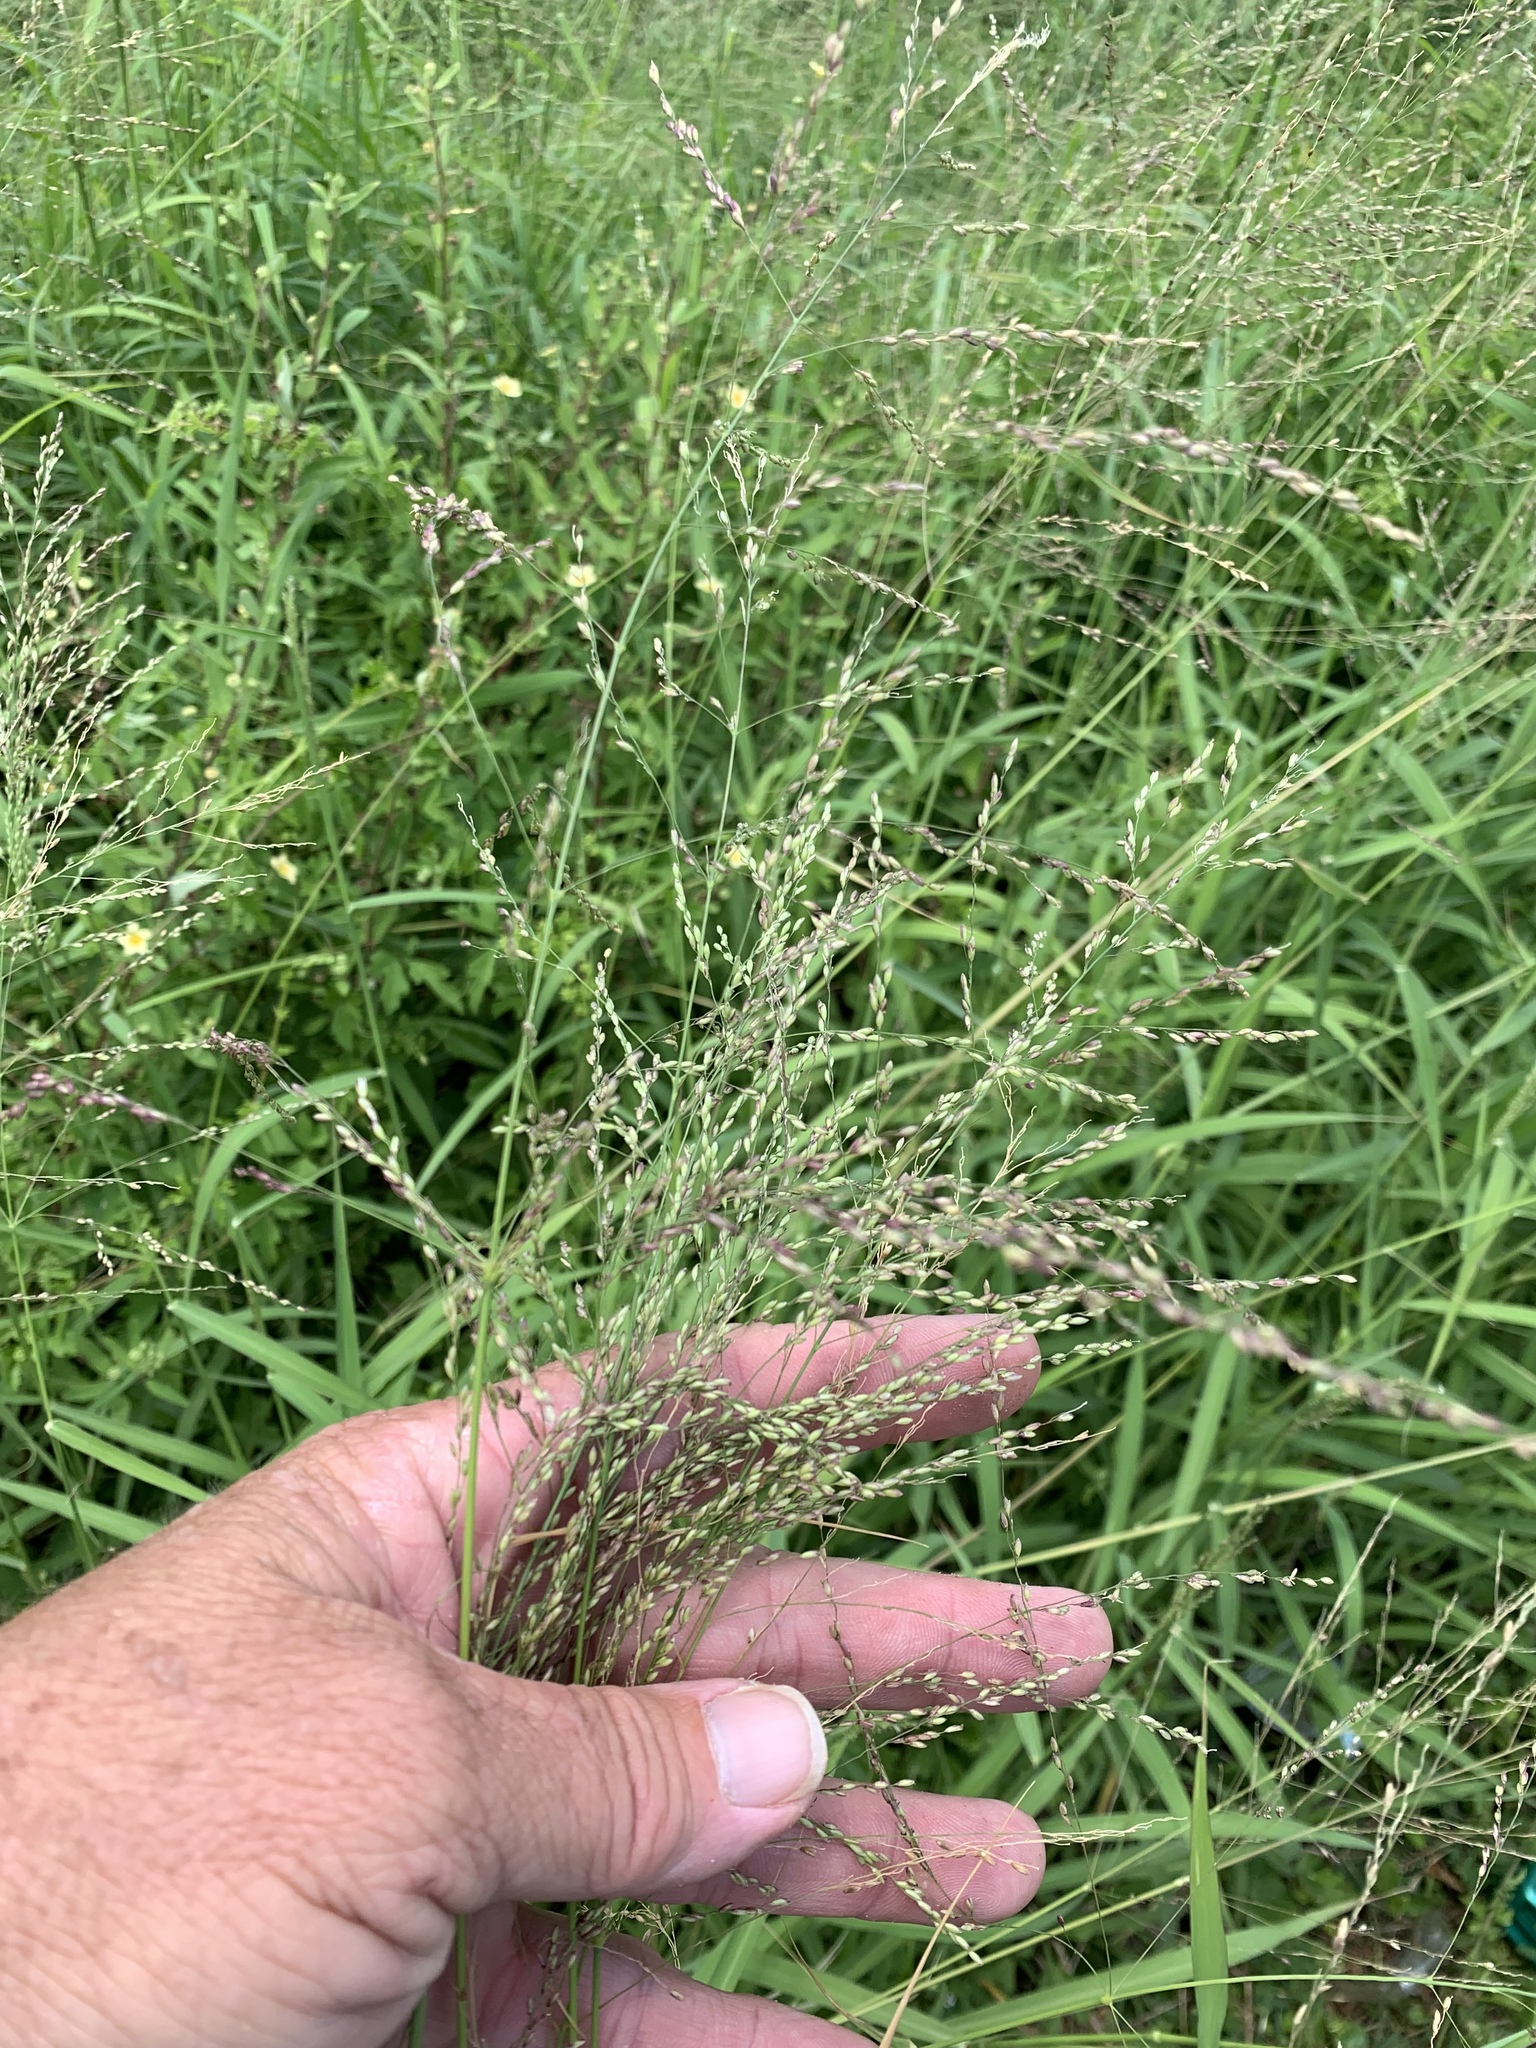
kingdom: Plantae
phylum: Tracheophyta
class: Liliopsida
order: Poales
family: Poaceae
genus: Megathyrsus
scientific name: Megathyrsus maximus
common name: Guineagrass
